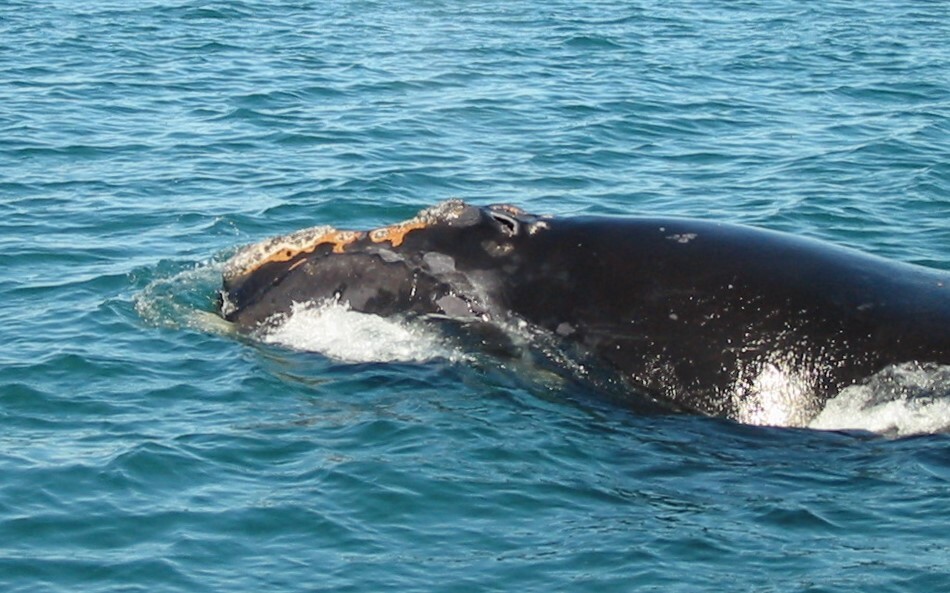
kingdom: Animalia
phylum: Chordata
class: Mammalia
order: Cetacea
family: Balaenidae
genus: Eubalaena
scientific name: Eubalaena glacialis
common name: North atlantic right whale
